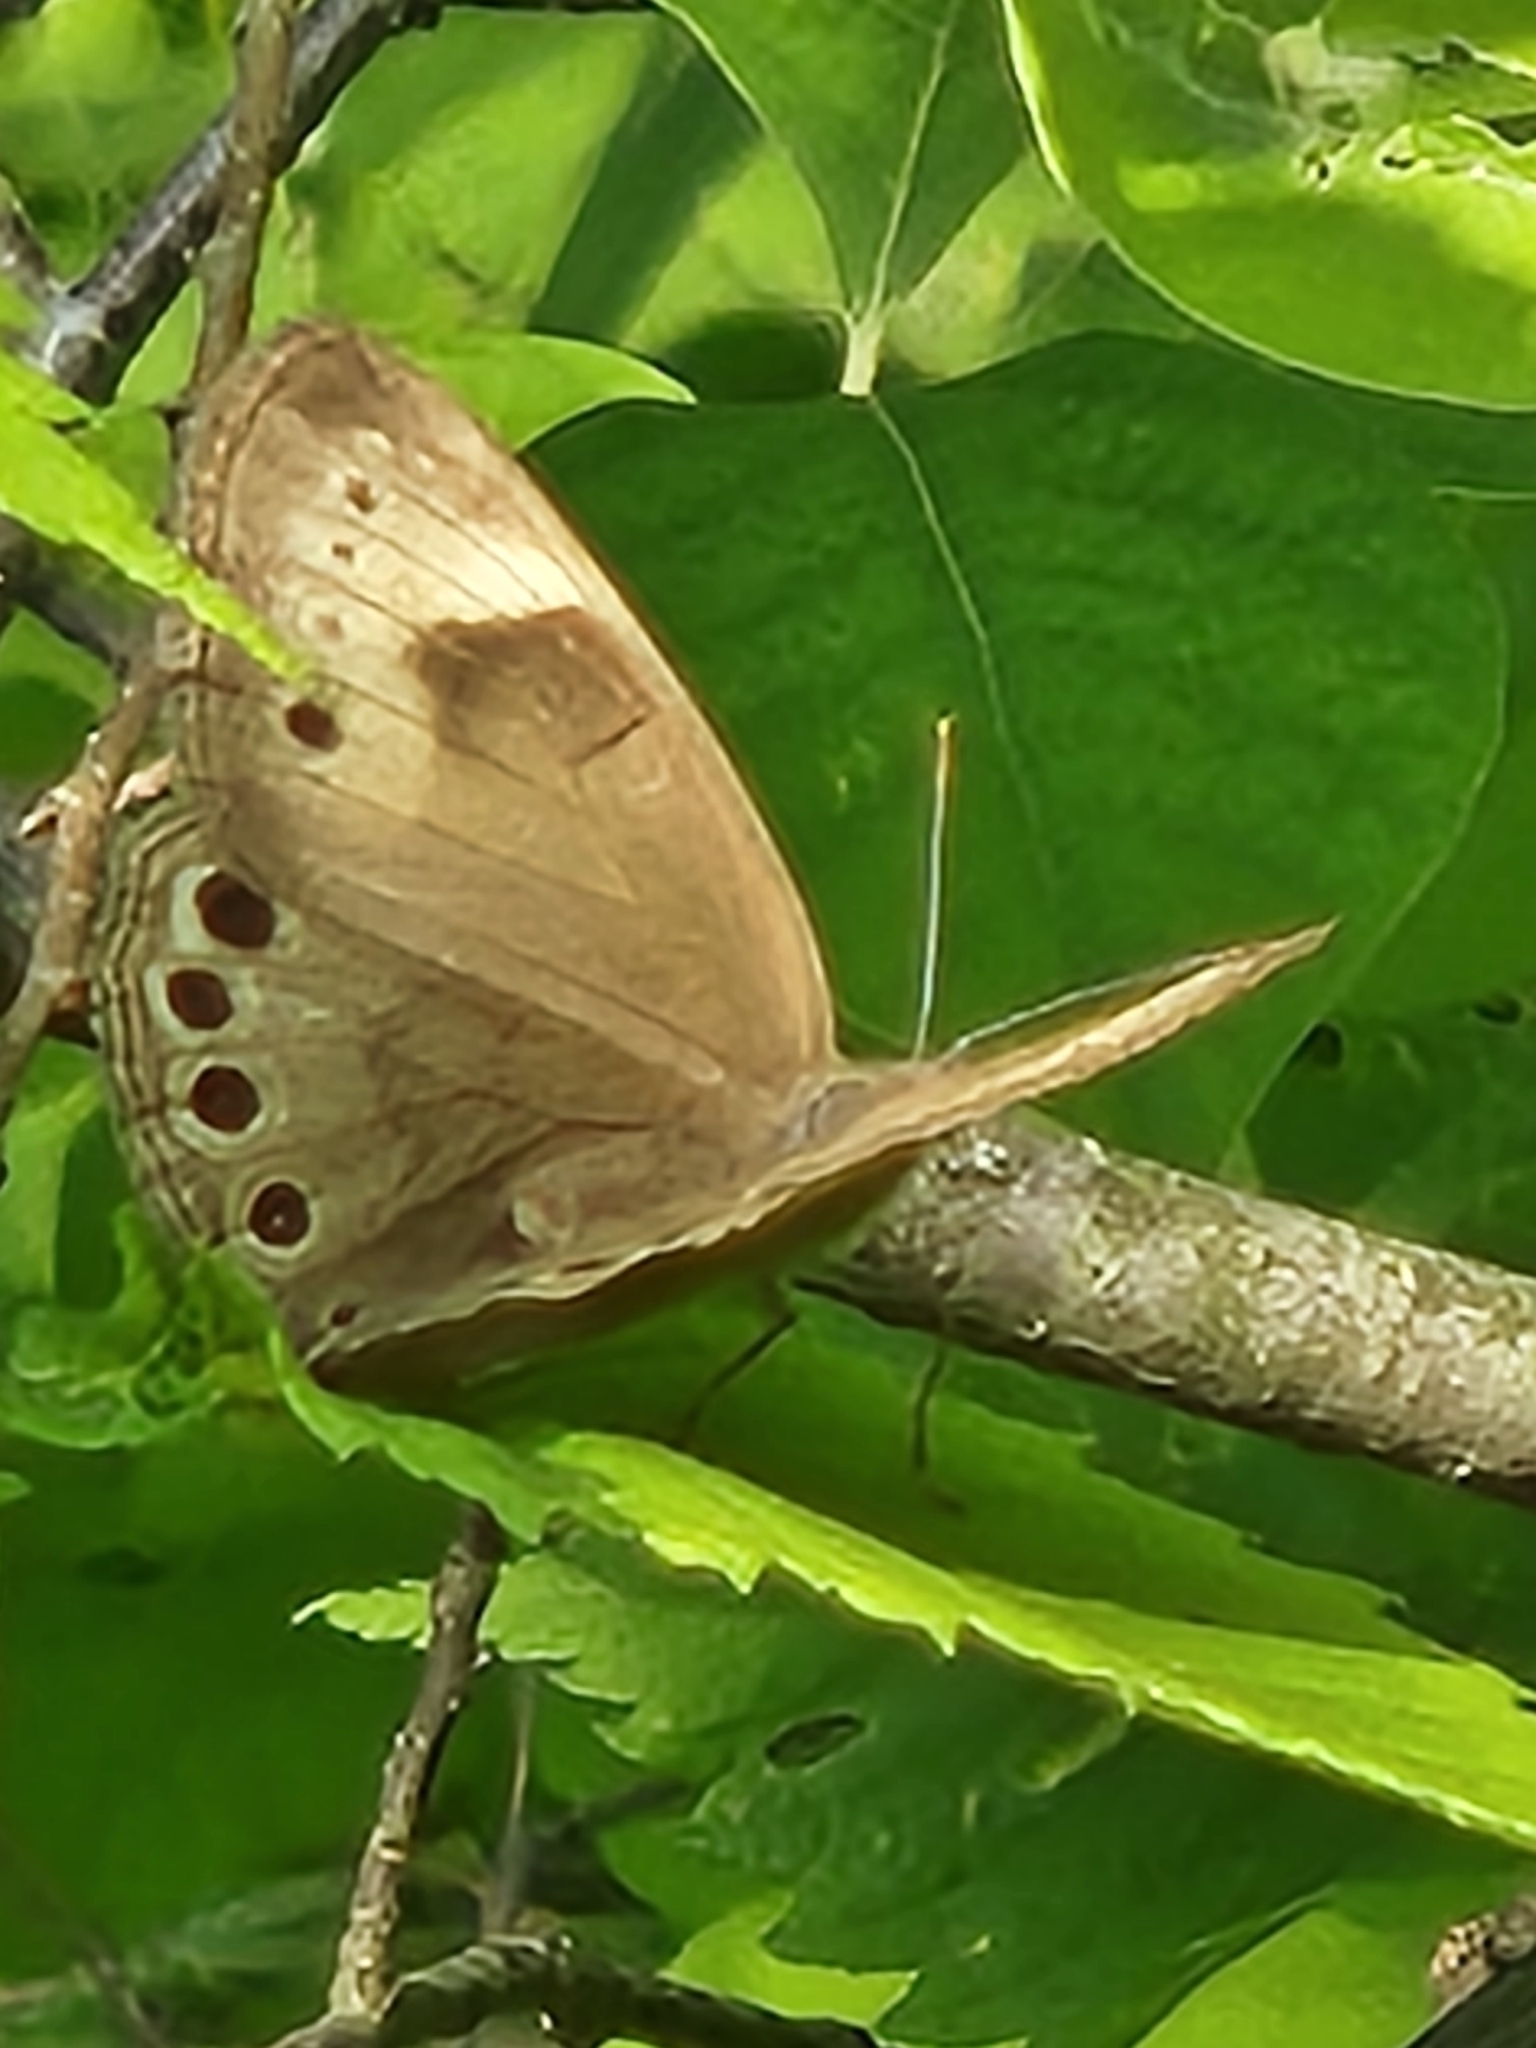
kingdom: Animalia
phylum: Arthropoda
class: Insecta
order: Lepidoptera
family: Nymphalidae
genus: Lethe
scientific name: Lethe eurydice
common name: Eyed brown
